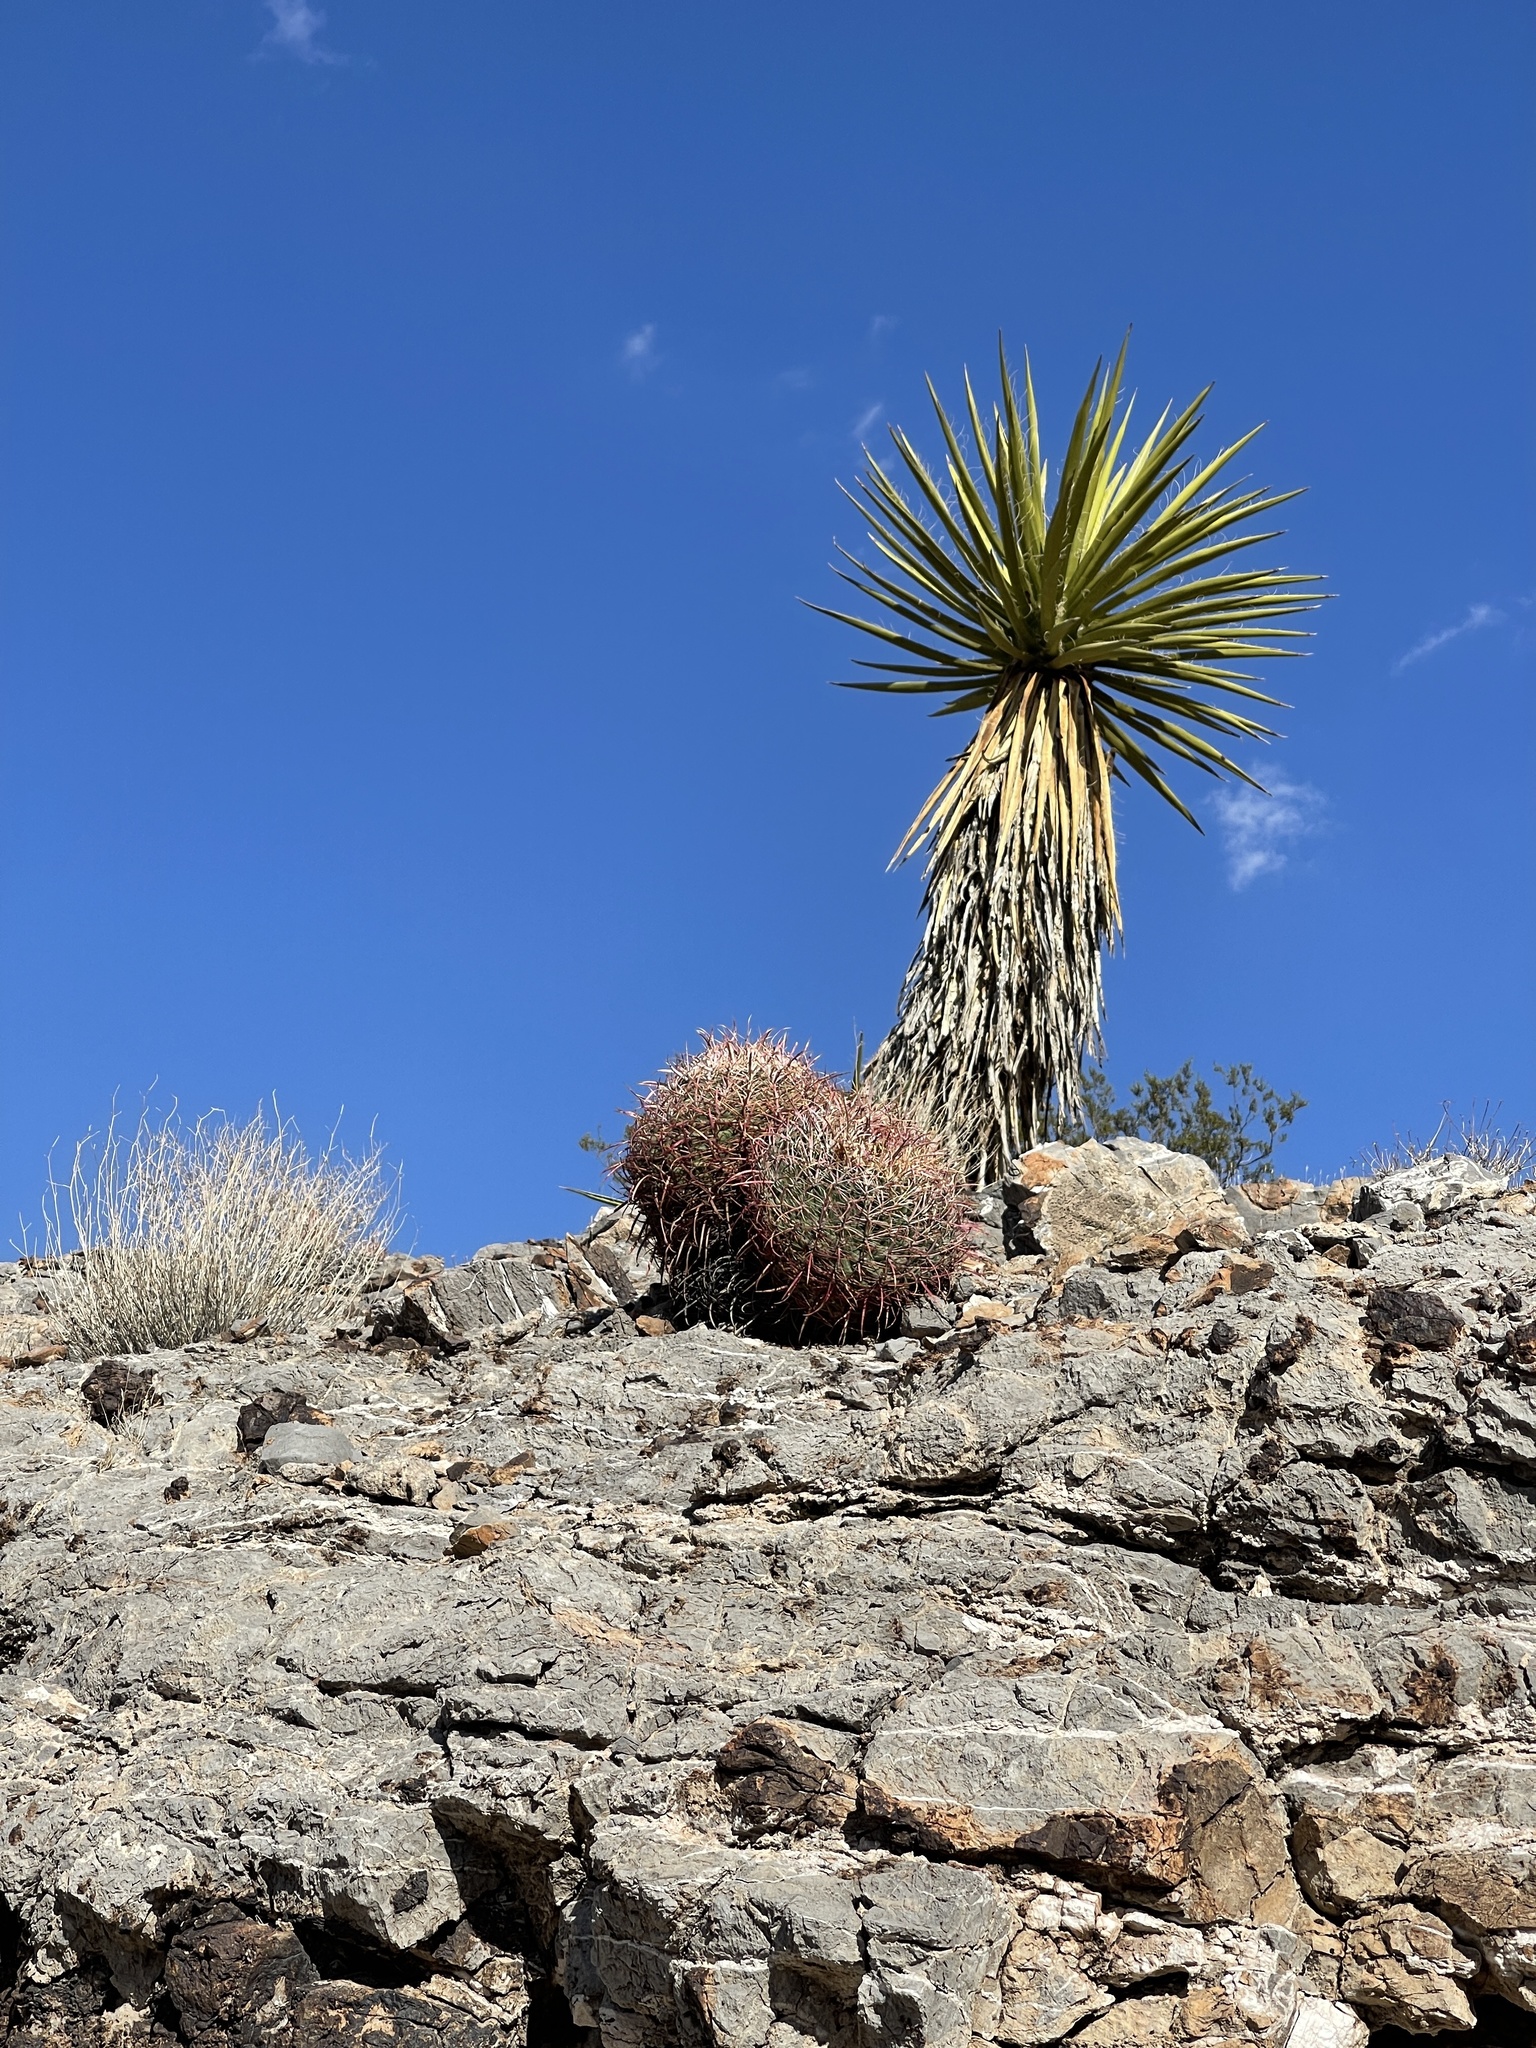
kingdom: Plantae
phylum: Tracheophyta
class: Magnoliopsida
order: Caryophyllales
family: Cactaceae
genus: Ferocactus
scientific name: Ferocactus cylindraceus
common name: California barrel cactus
